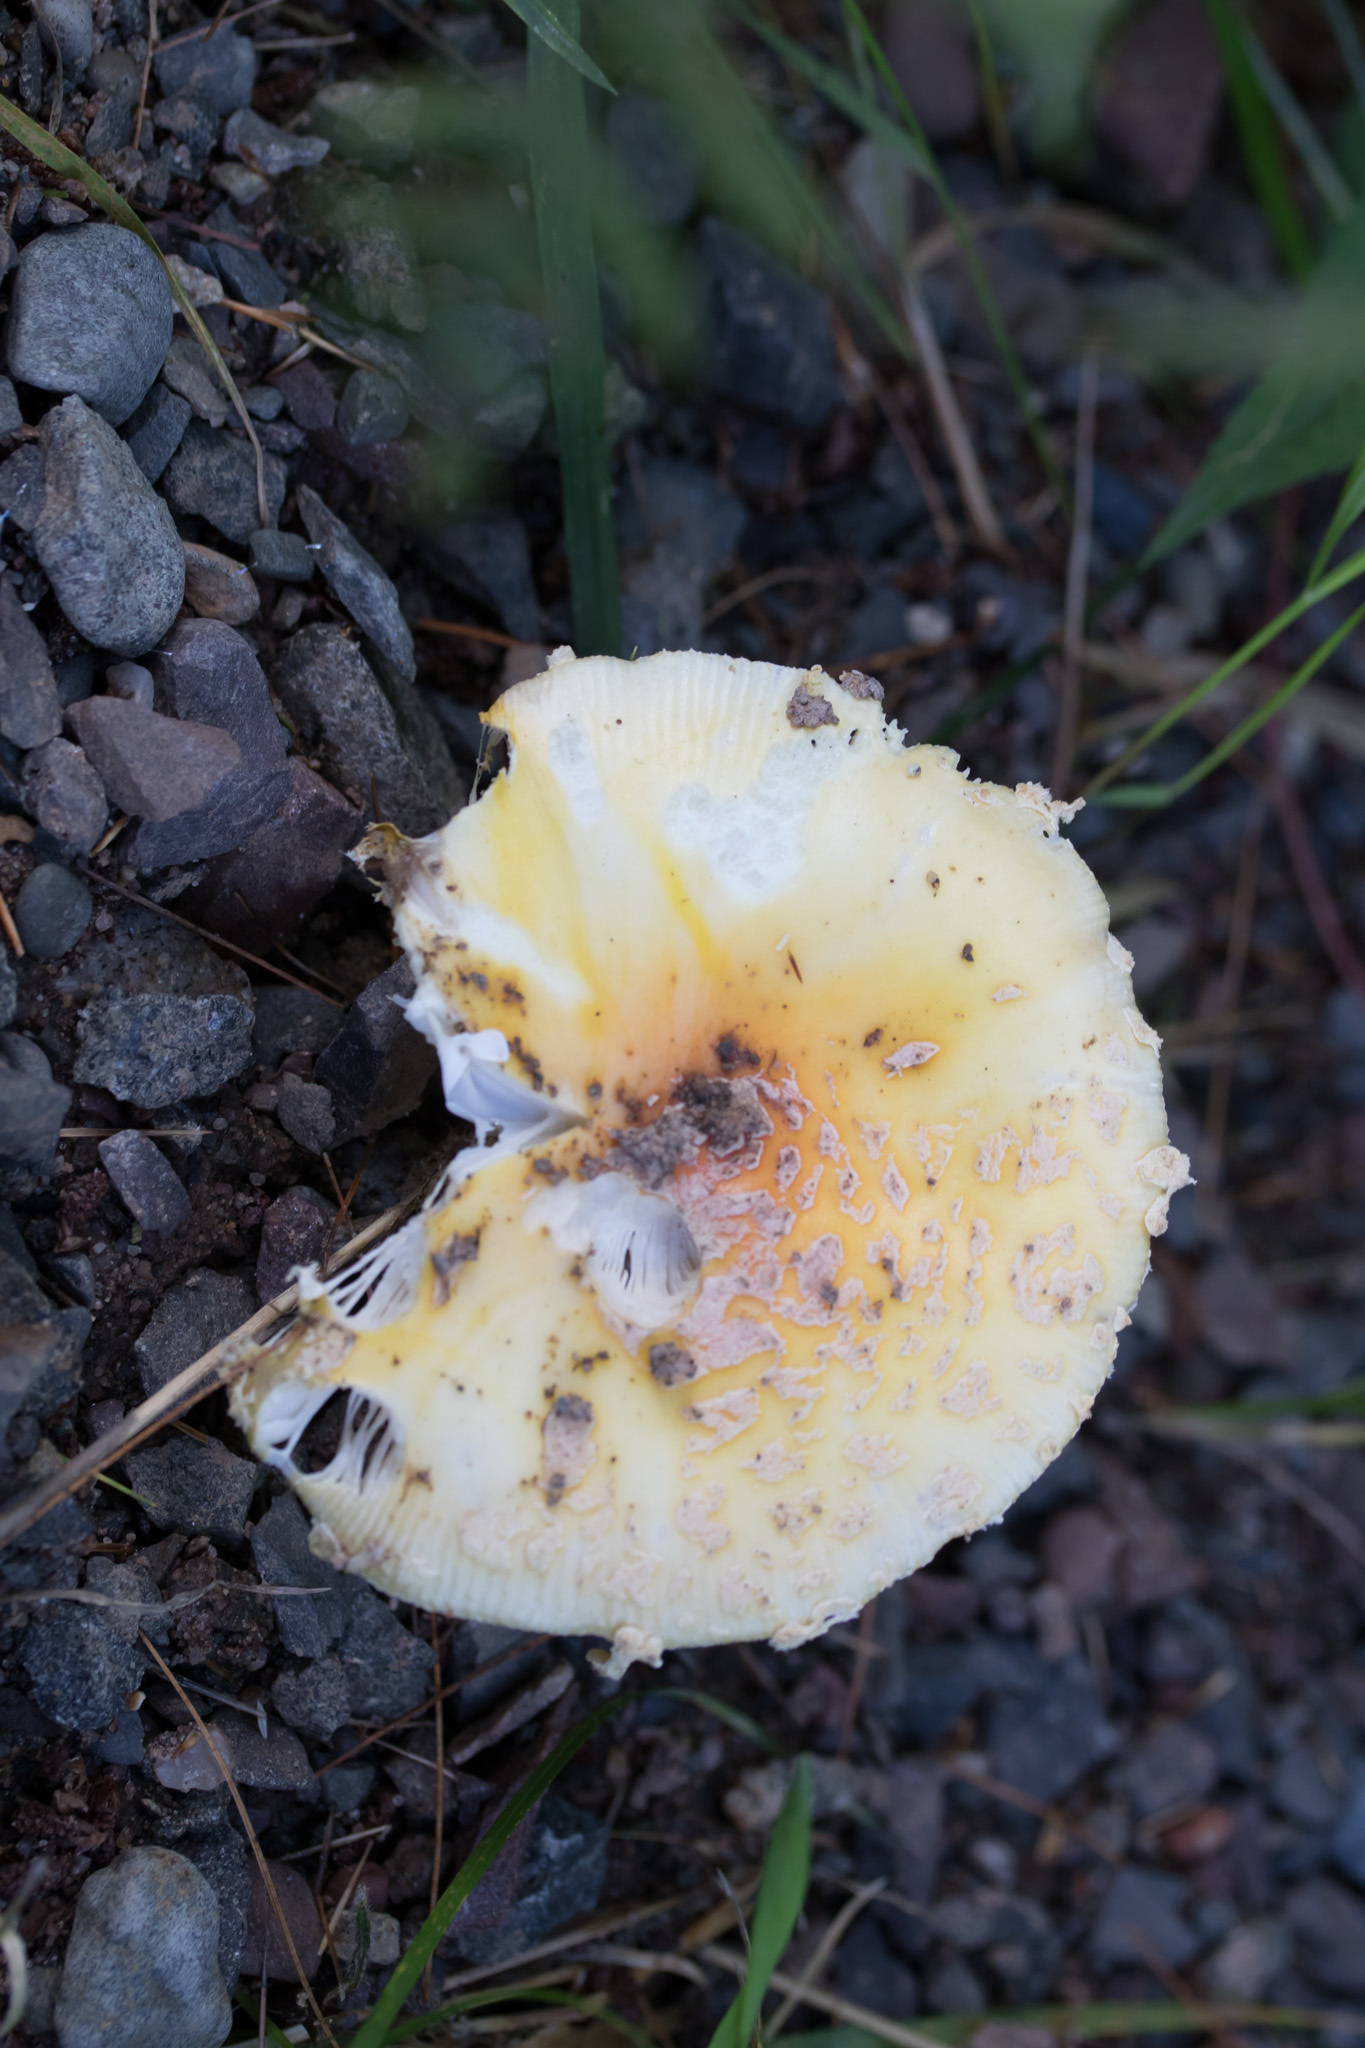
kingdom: Fungi
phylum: Basidiomycota
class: Agaricomycetes
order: Agaricales
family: Amanitaceae
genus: Amanita
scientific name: Amanita muscaria
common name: Fly agaric
